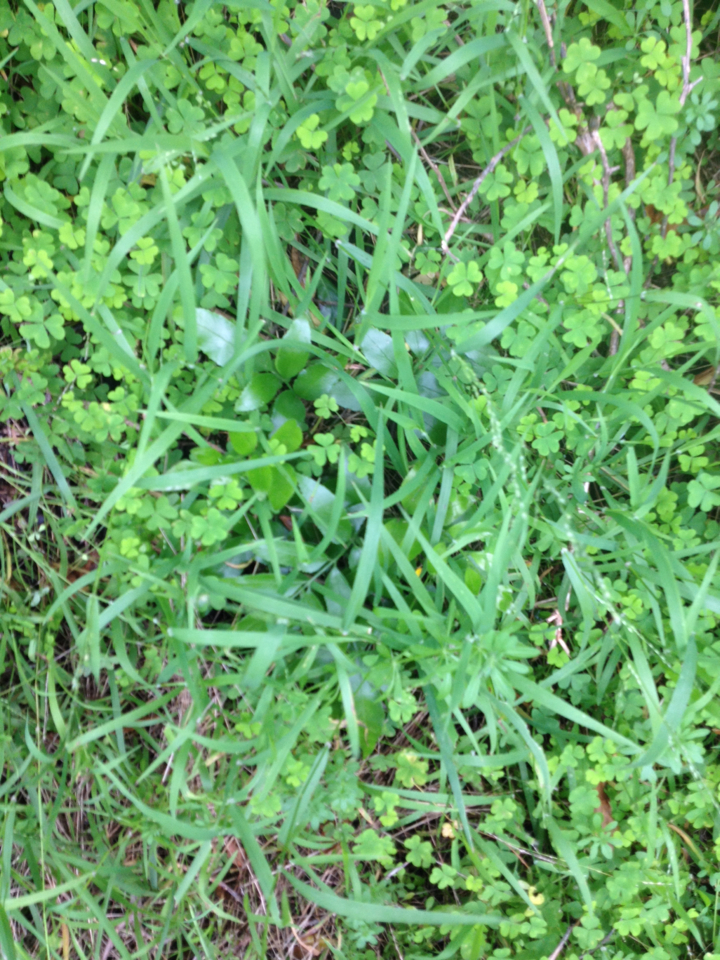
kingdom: Plantae
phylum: Tracheophyta
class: Polypodiopsida
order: Polypodiales
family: Aspleniaceae
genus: Asplenium
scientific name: Asplenium oblongifolium
